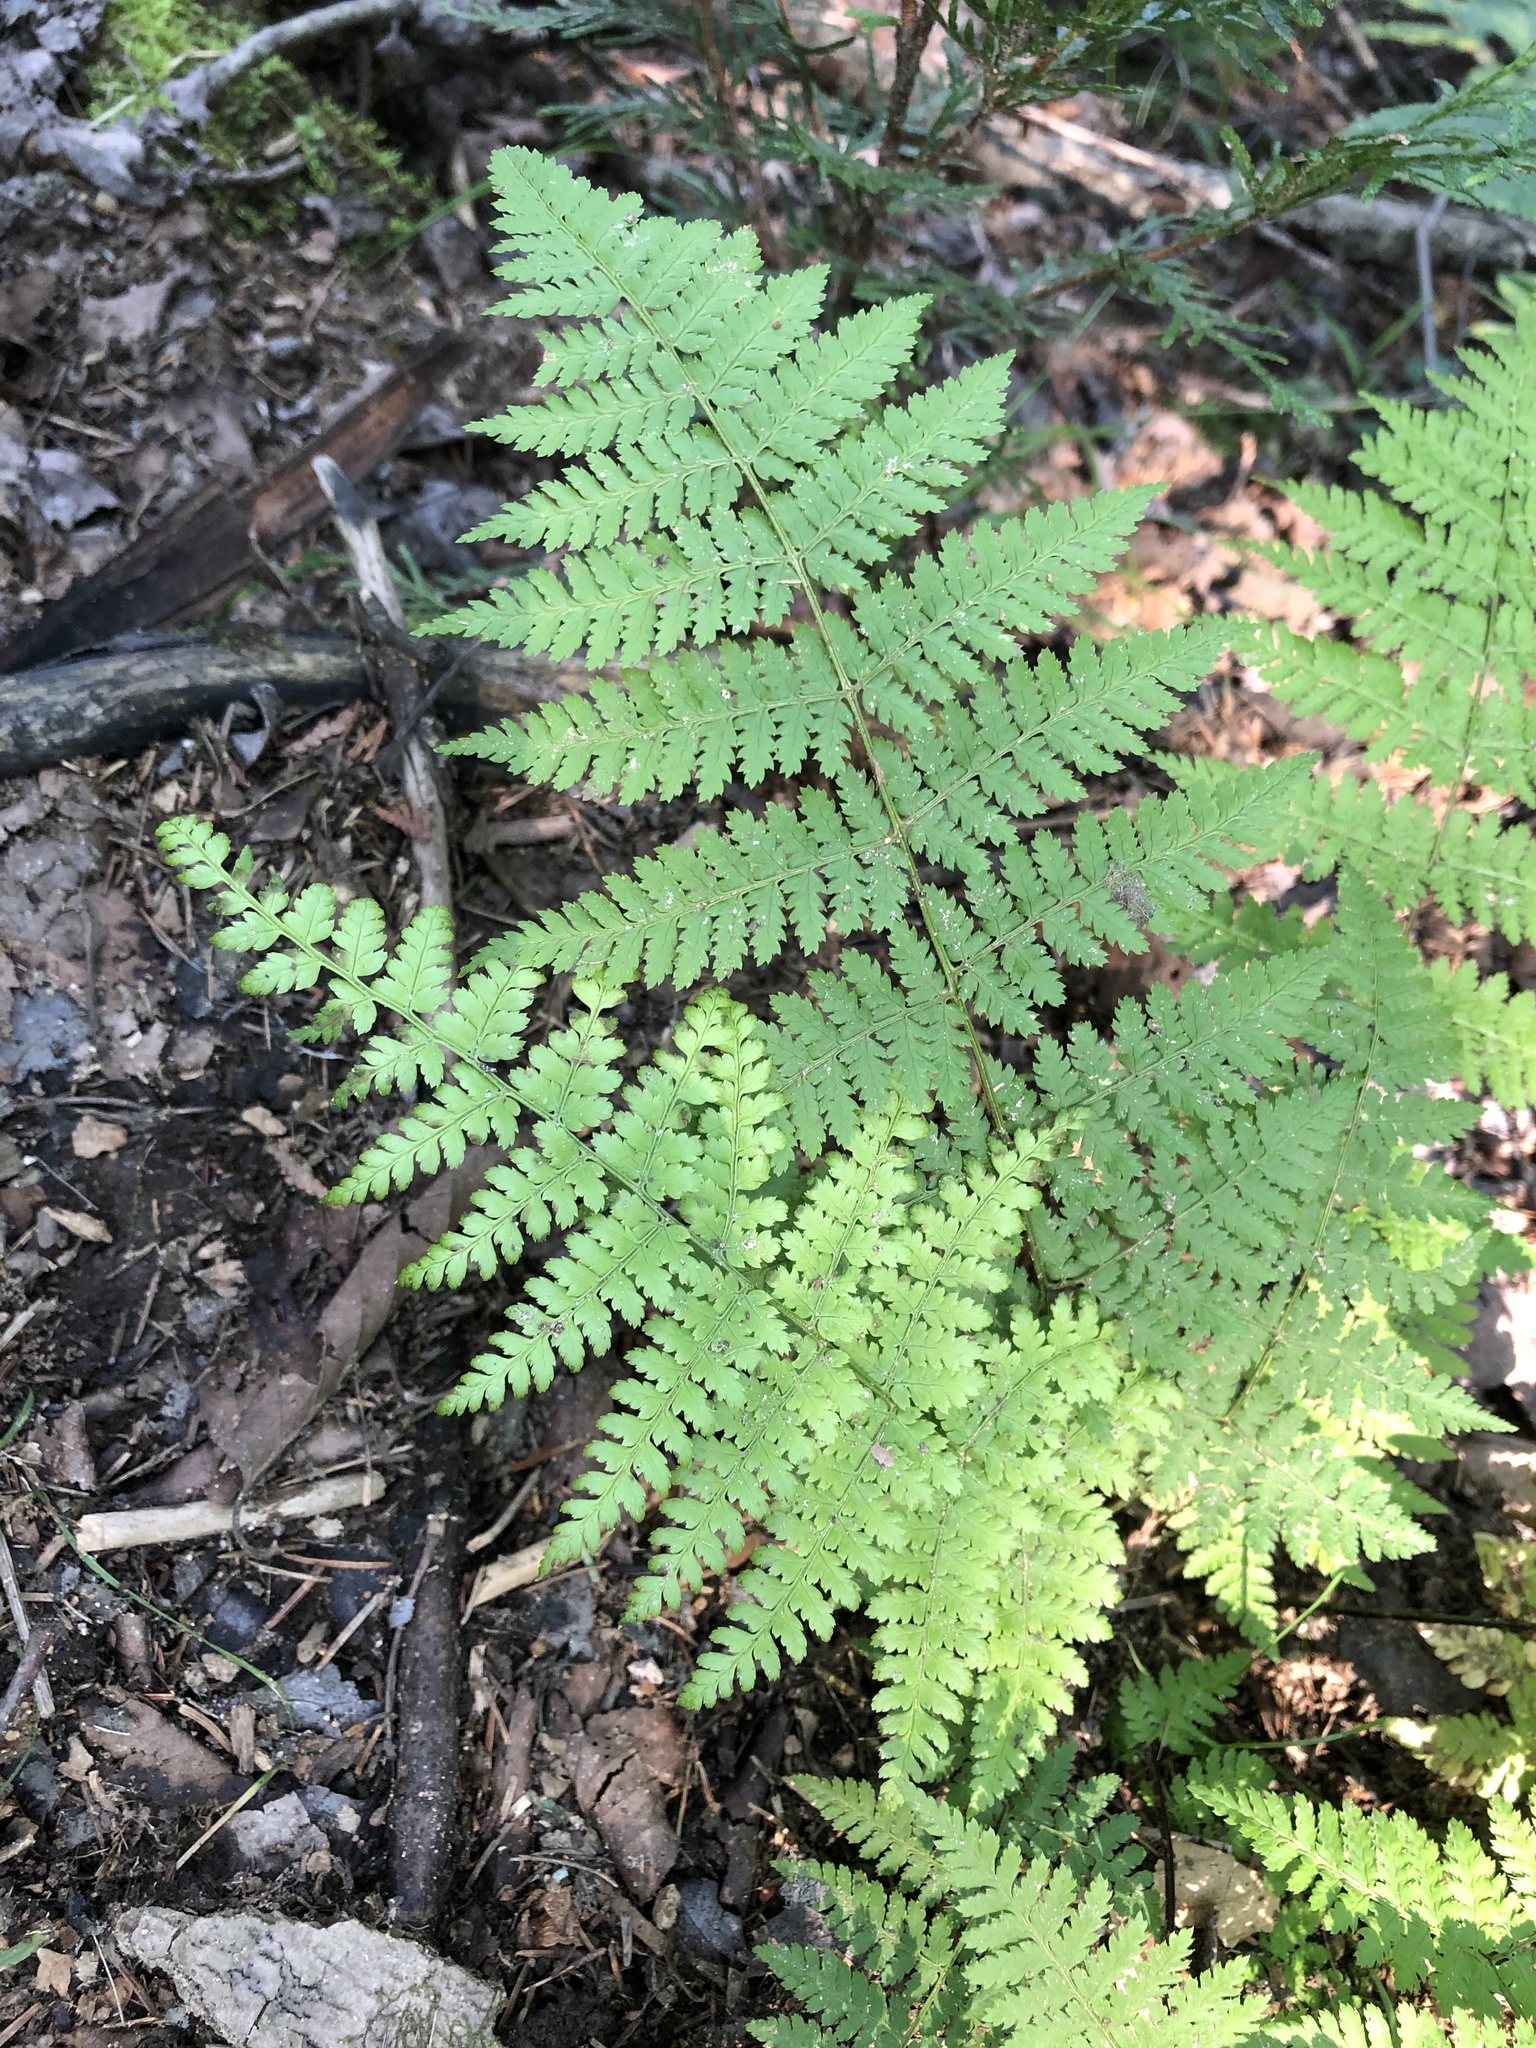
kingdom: Plantae
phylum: Tracheophyta
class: Polypodiopsida
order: Polypodiales
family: Dryopteridaceae
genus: Dryopteris
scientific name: Dryopteris intermedia
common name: Evergreen wood fern
